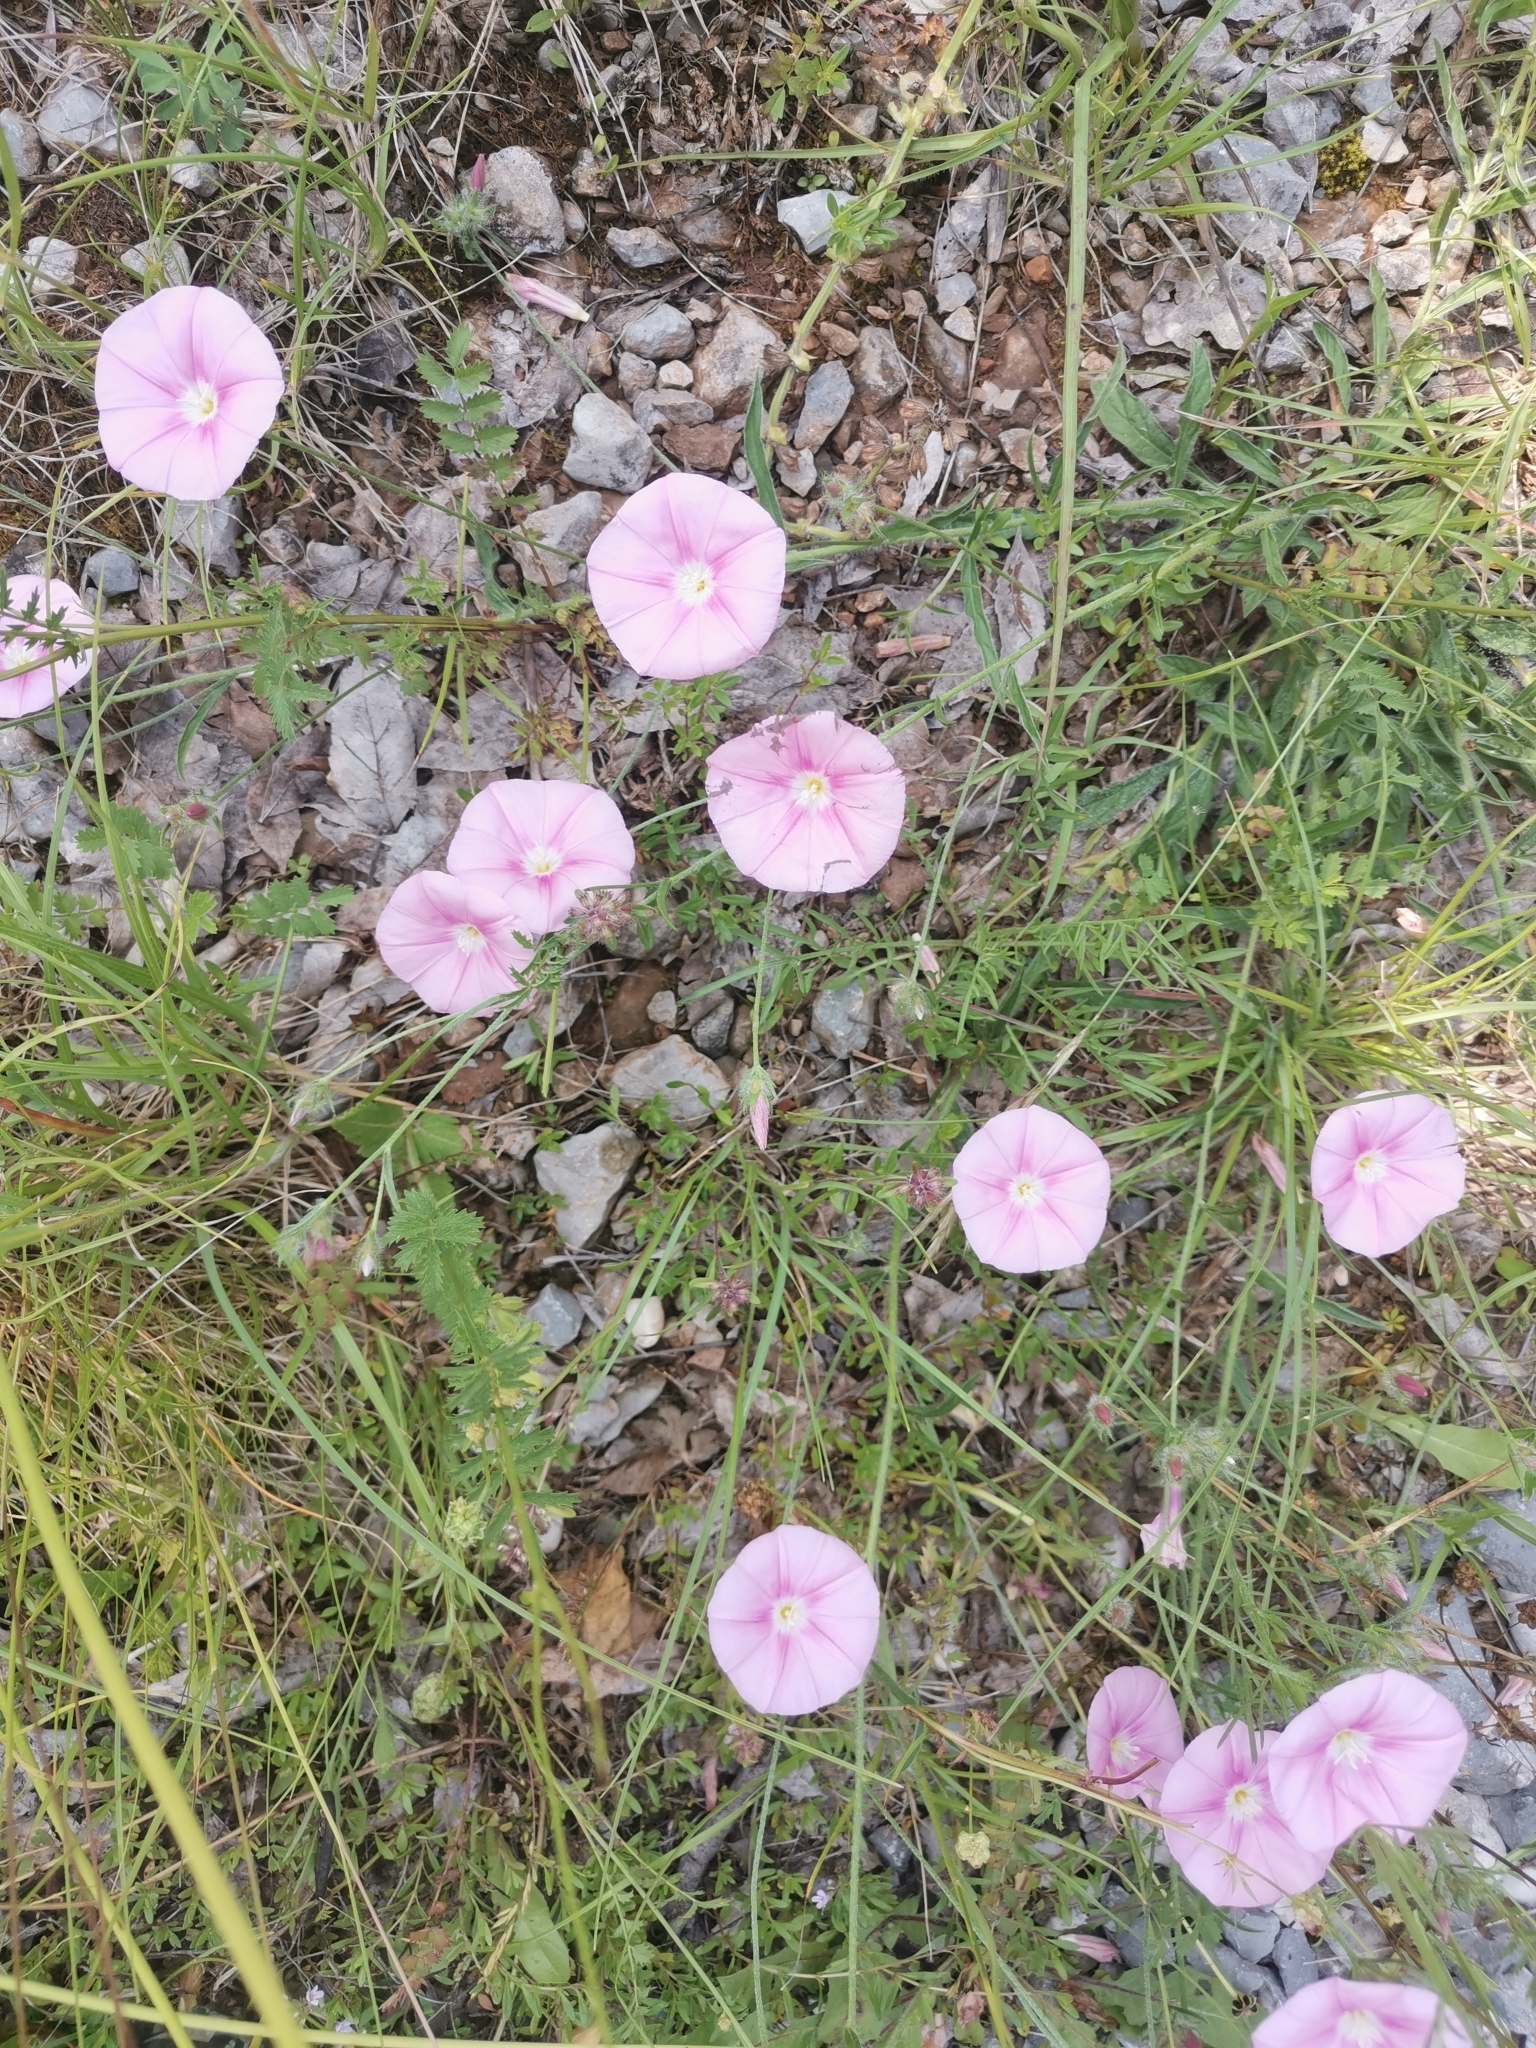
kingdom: Plantae
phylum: Tracheophyta
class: Magnoliopsida
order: Solanales
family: Convolvulaceae
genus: Convolvulus
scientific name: Convolvulus cantabrica
